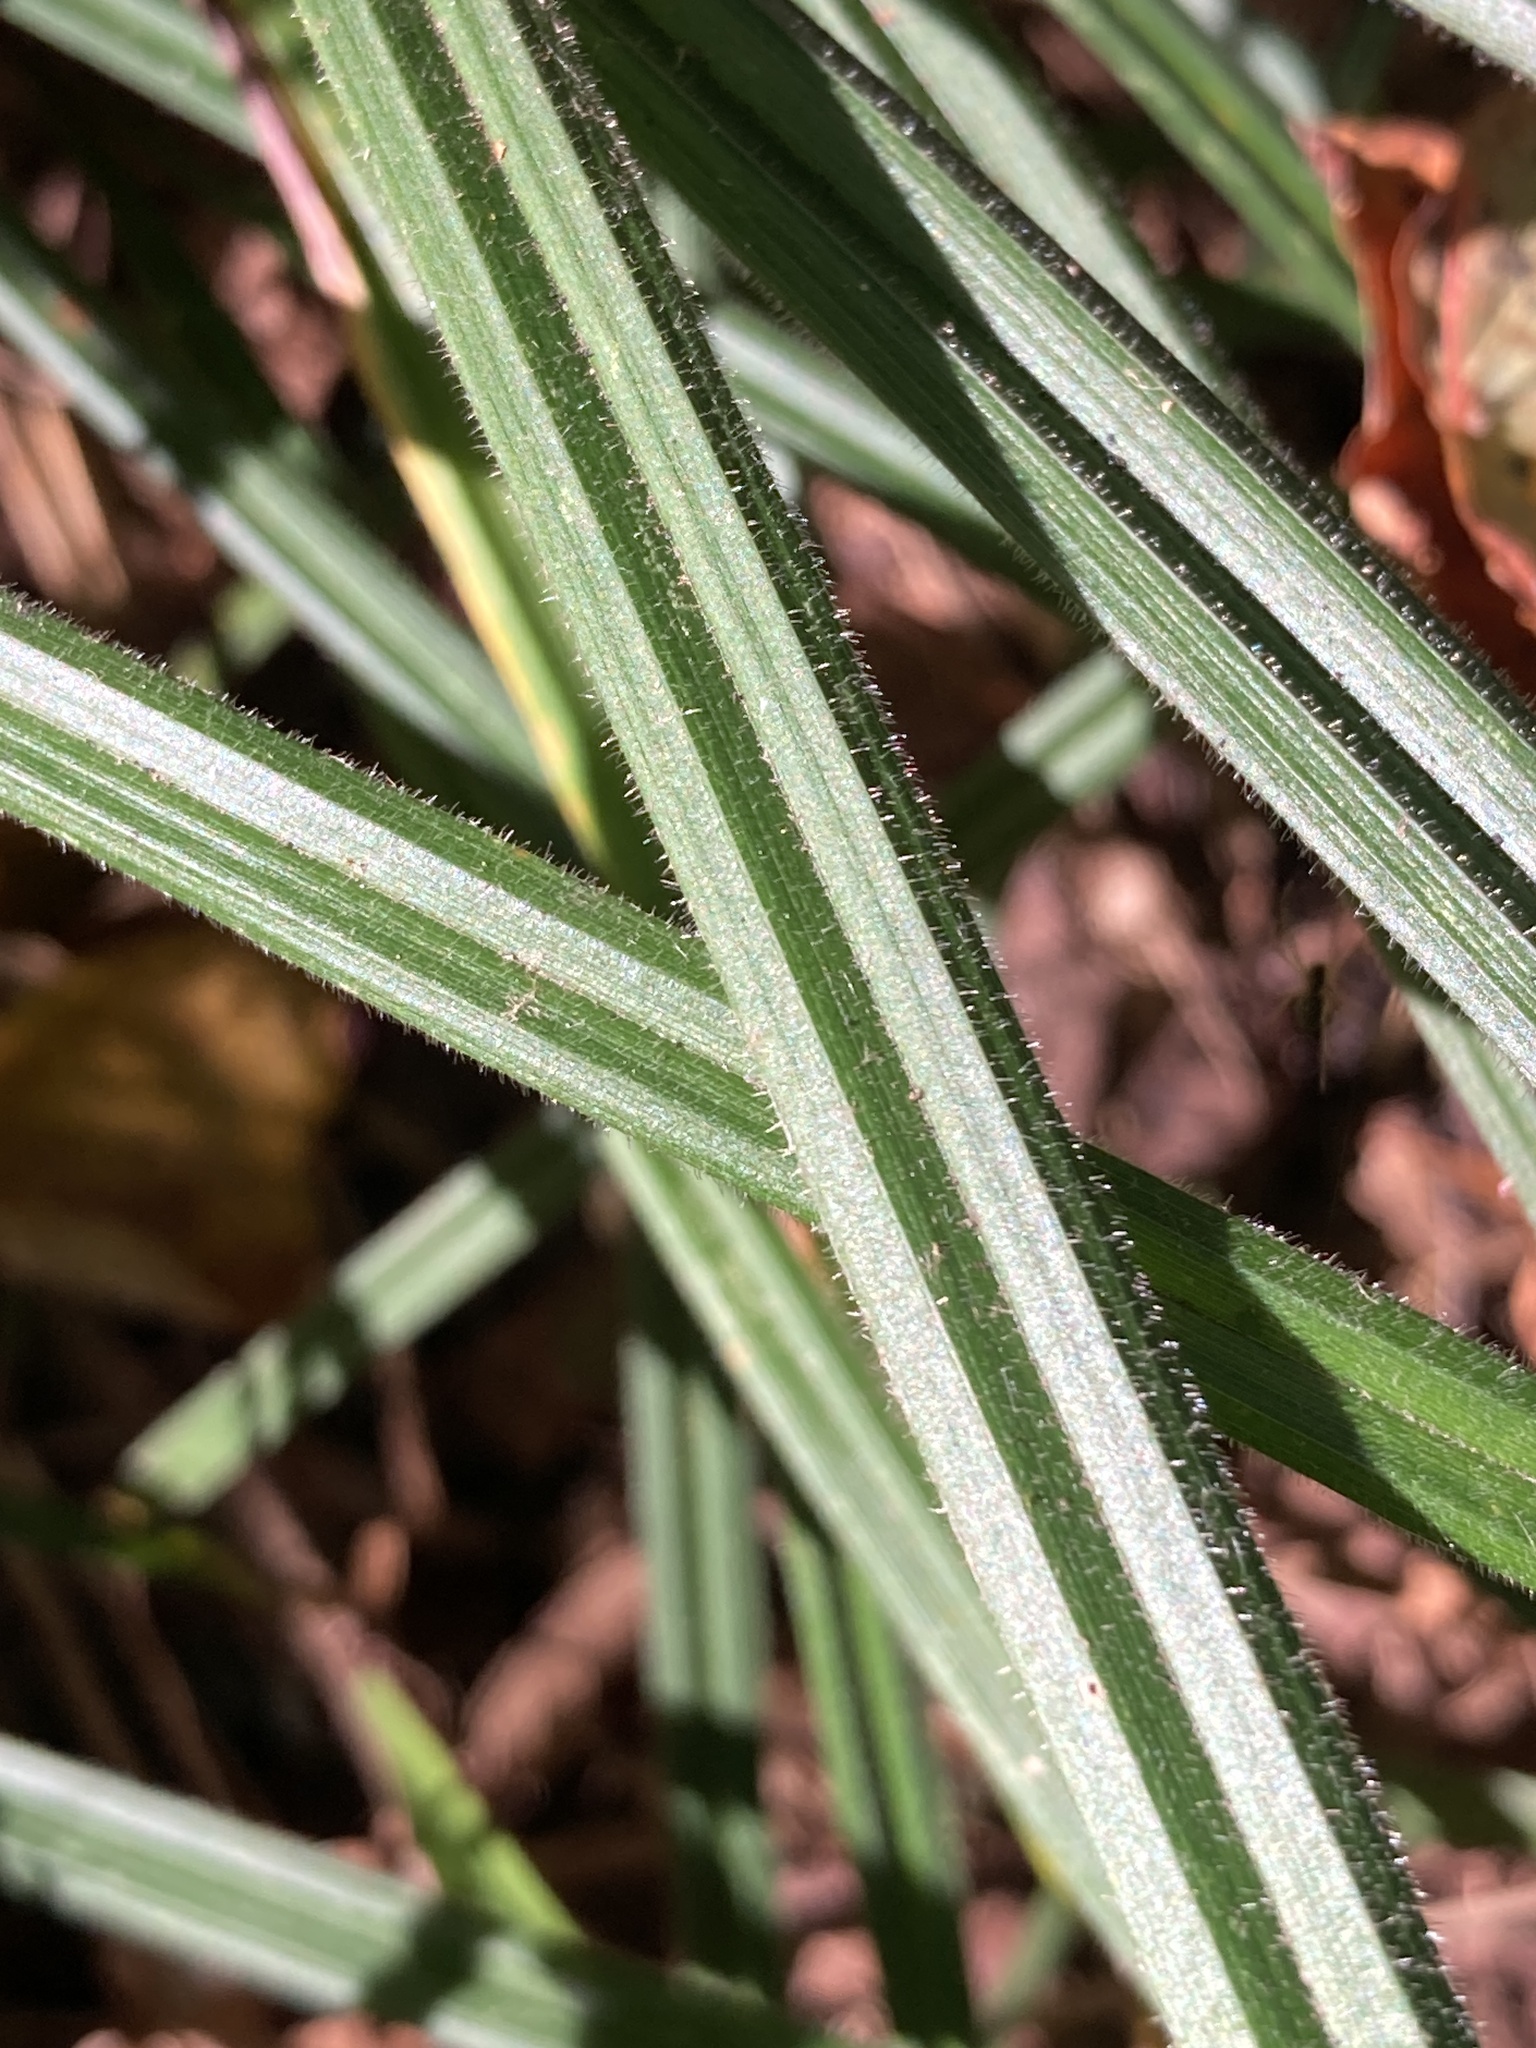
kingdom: Plantae
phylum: Tracheophyta
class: Liliopsida
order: Poales
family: Cyperaceae
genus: Carex
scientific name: Carex pilosa
